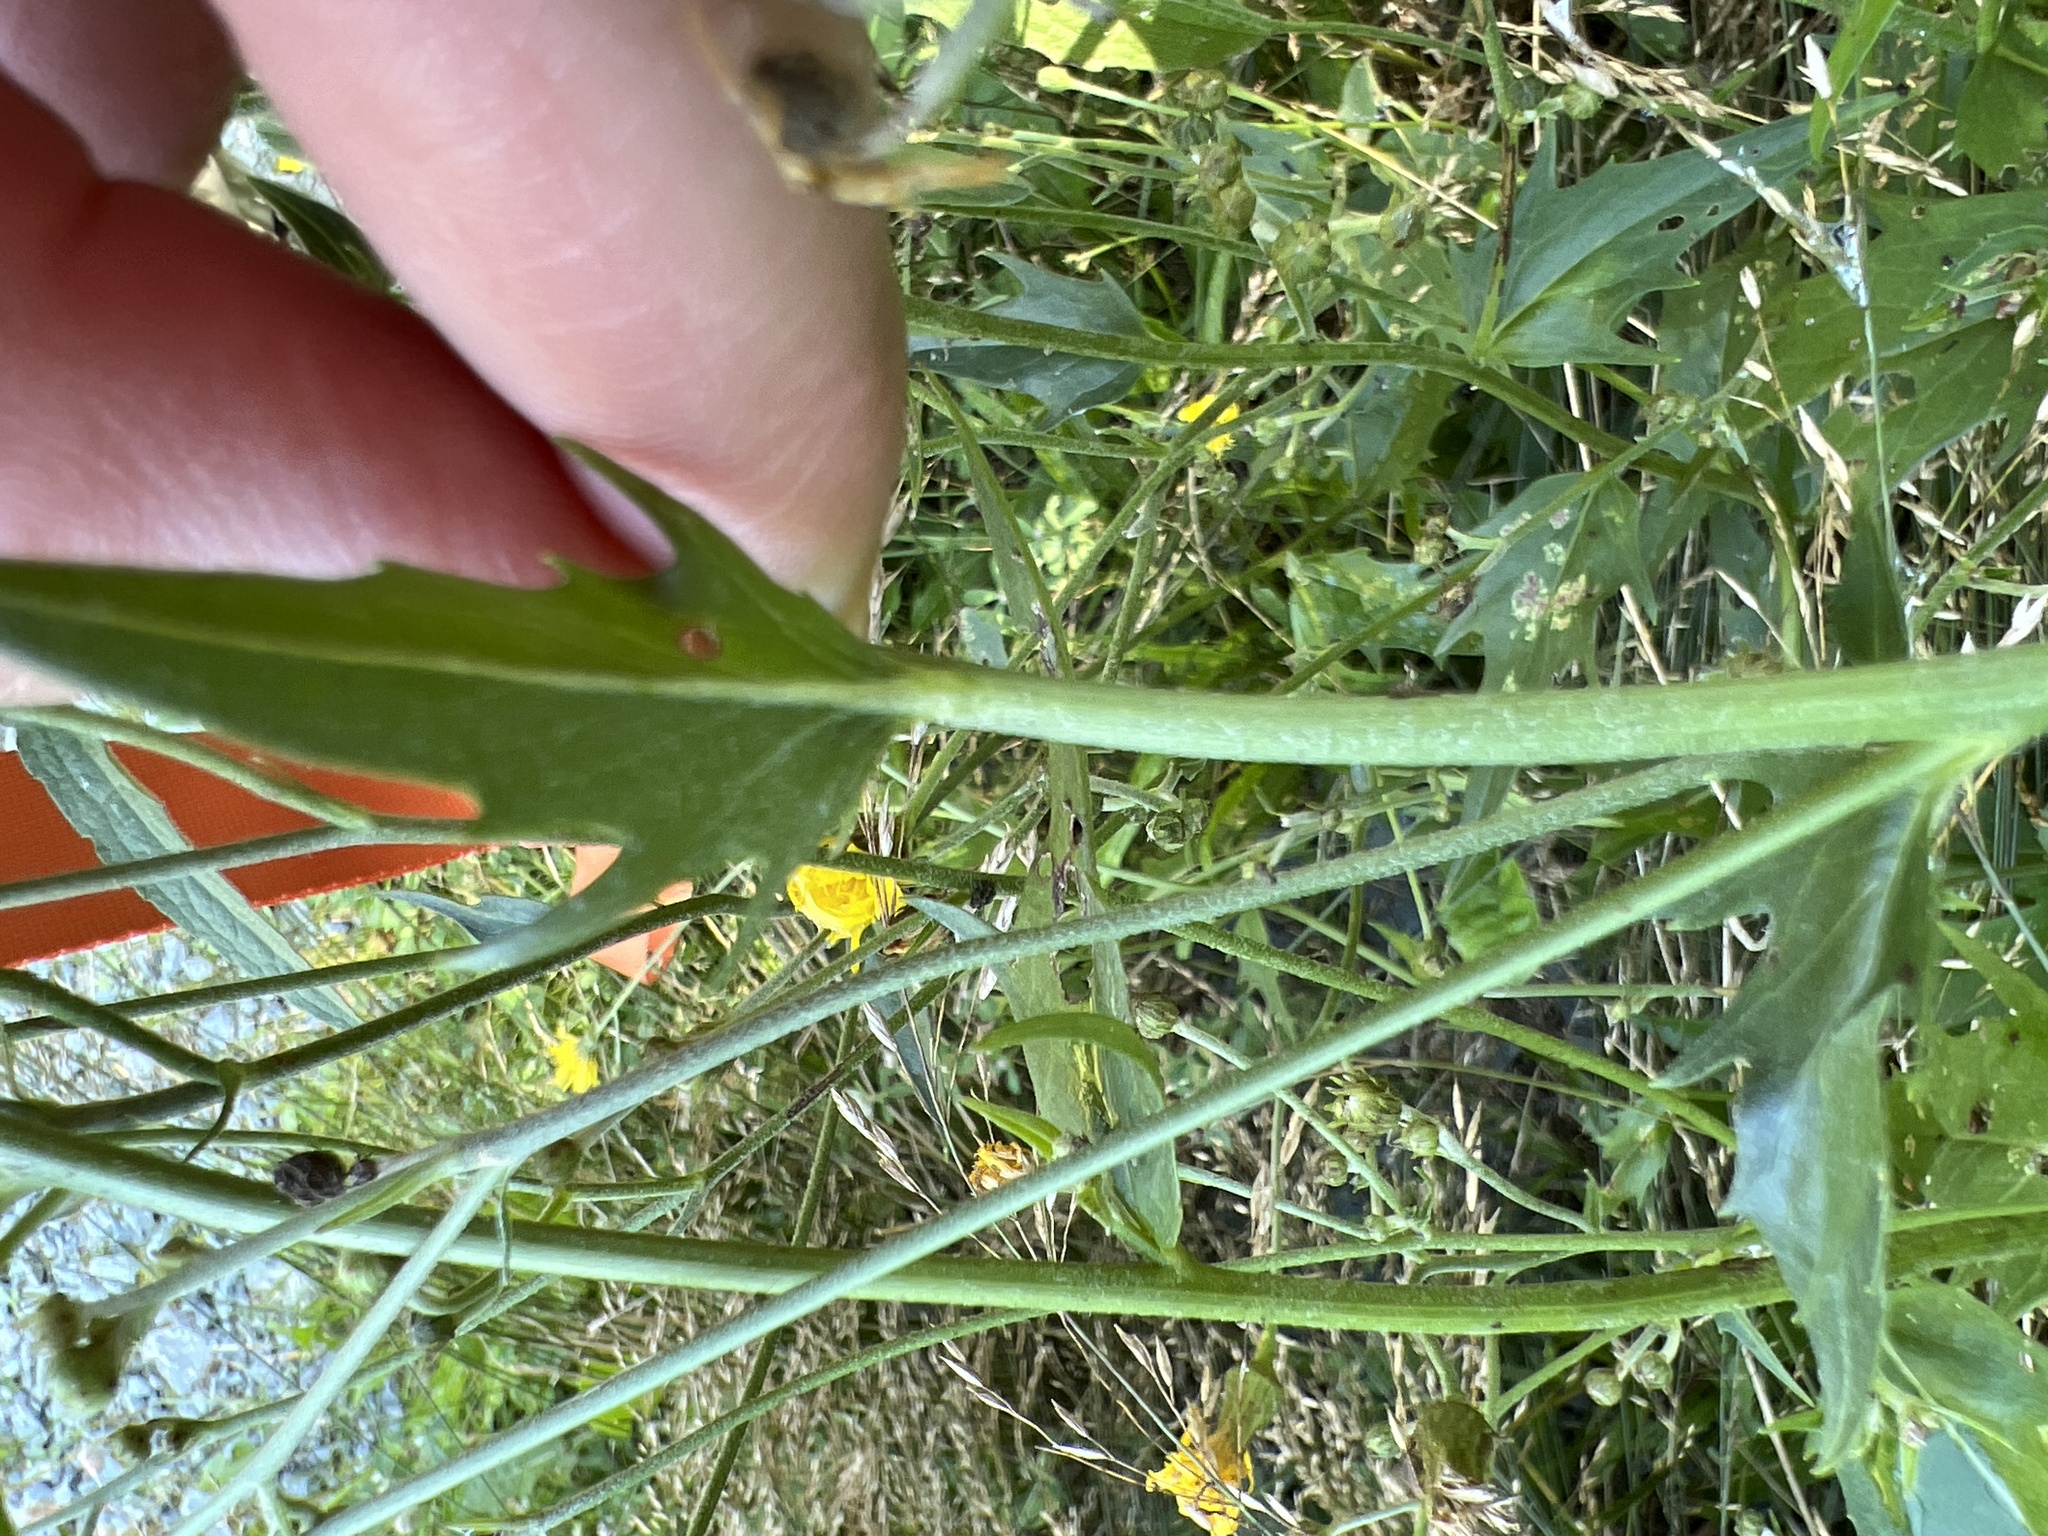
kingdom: Plantae
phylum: Tracheophyta
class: Magnoliopsida
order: Asterales
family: Asteraceae
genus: Hieracium
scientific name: Hieracium lachenalii
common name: Common hawkweed
